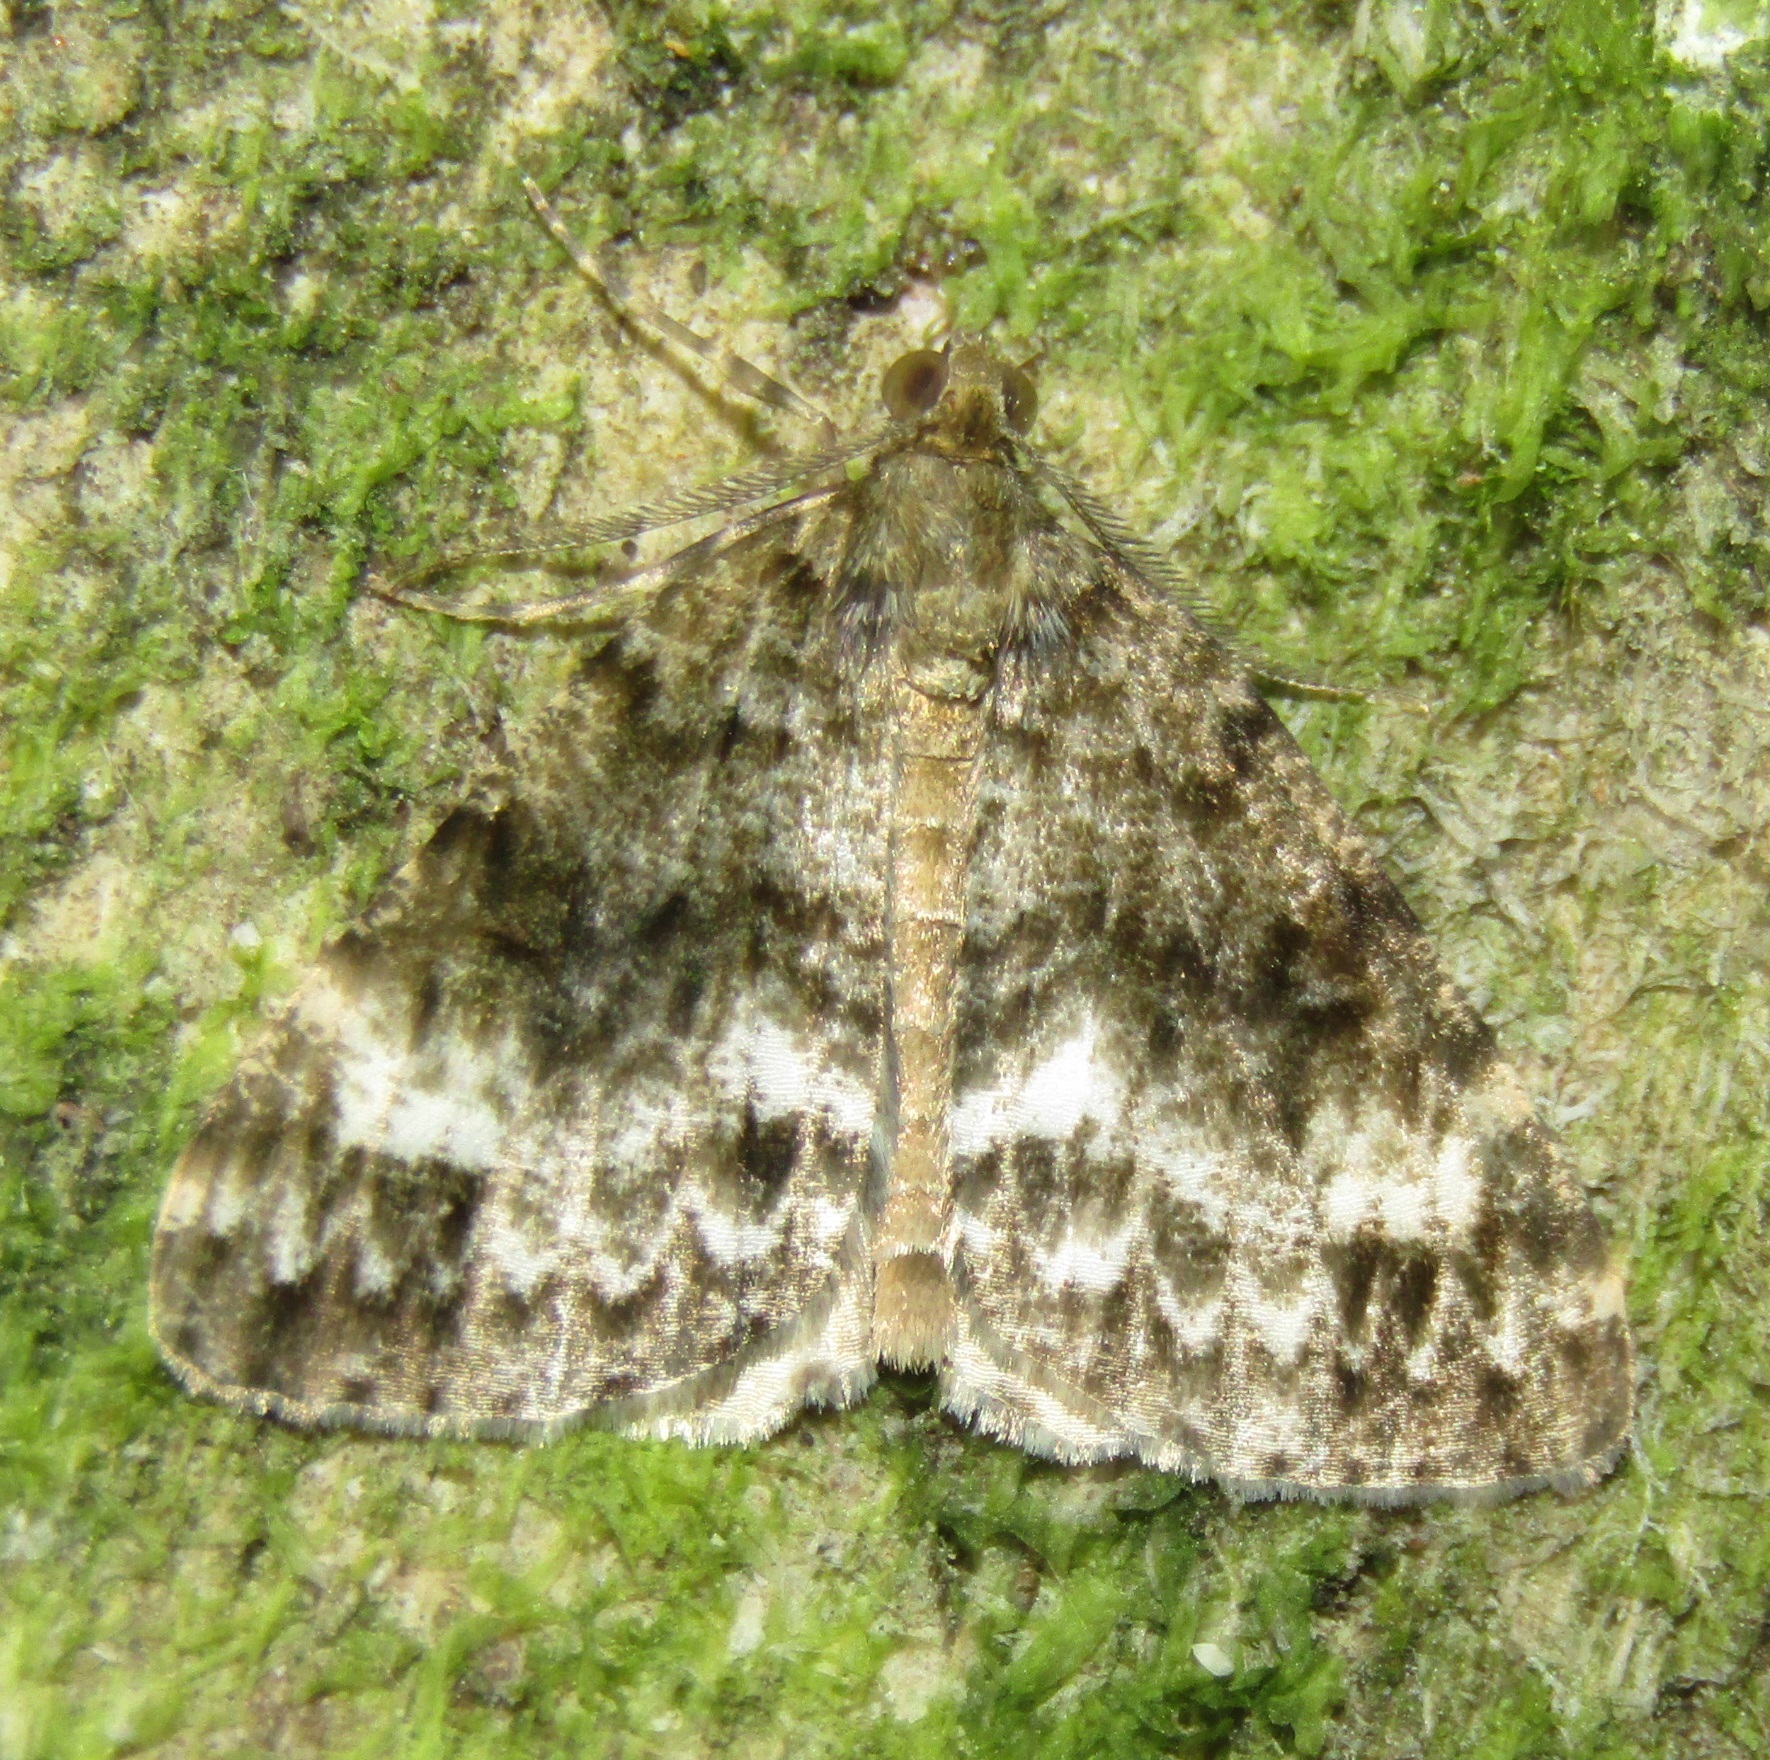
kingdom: Animalia
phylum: Arthropoda
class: Insecta
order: Lepidoptera
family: Geometridae
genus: Pseudocoremia
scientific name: Pseudocoremia indistincta
